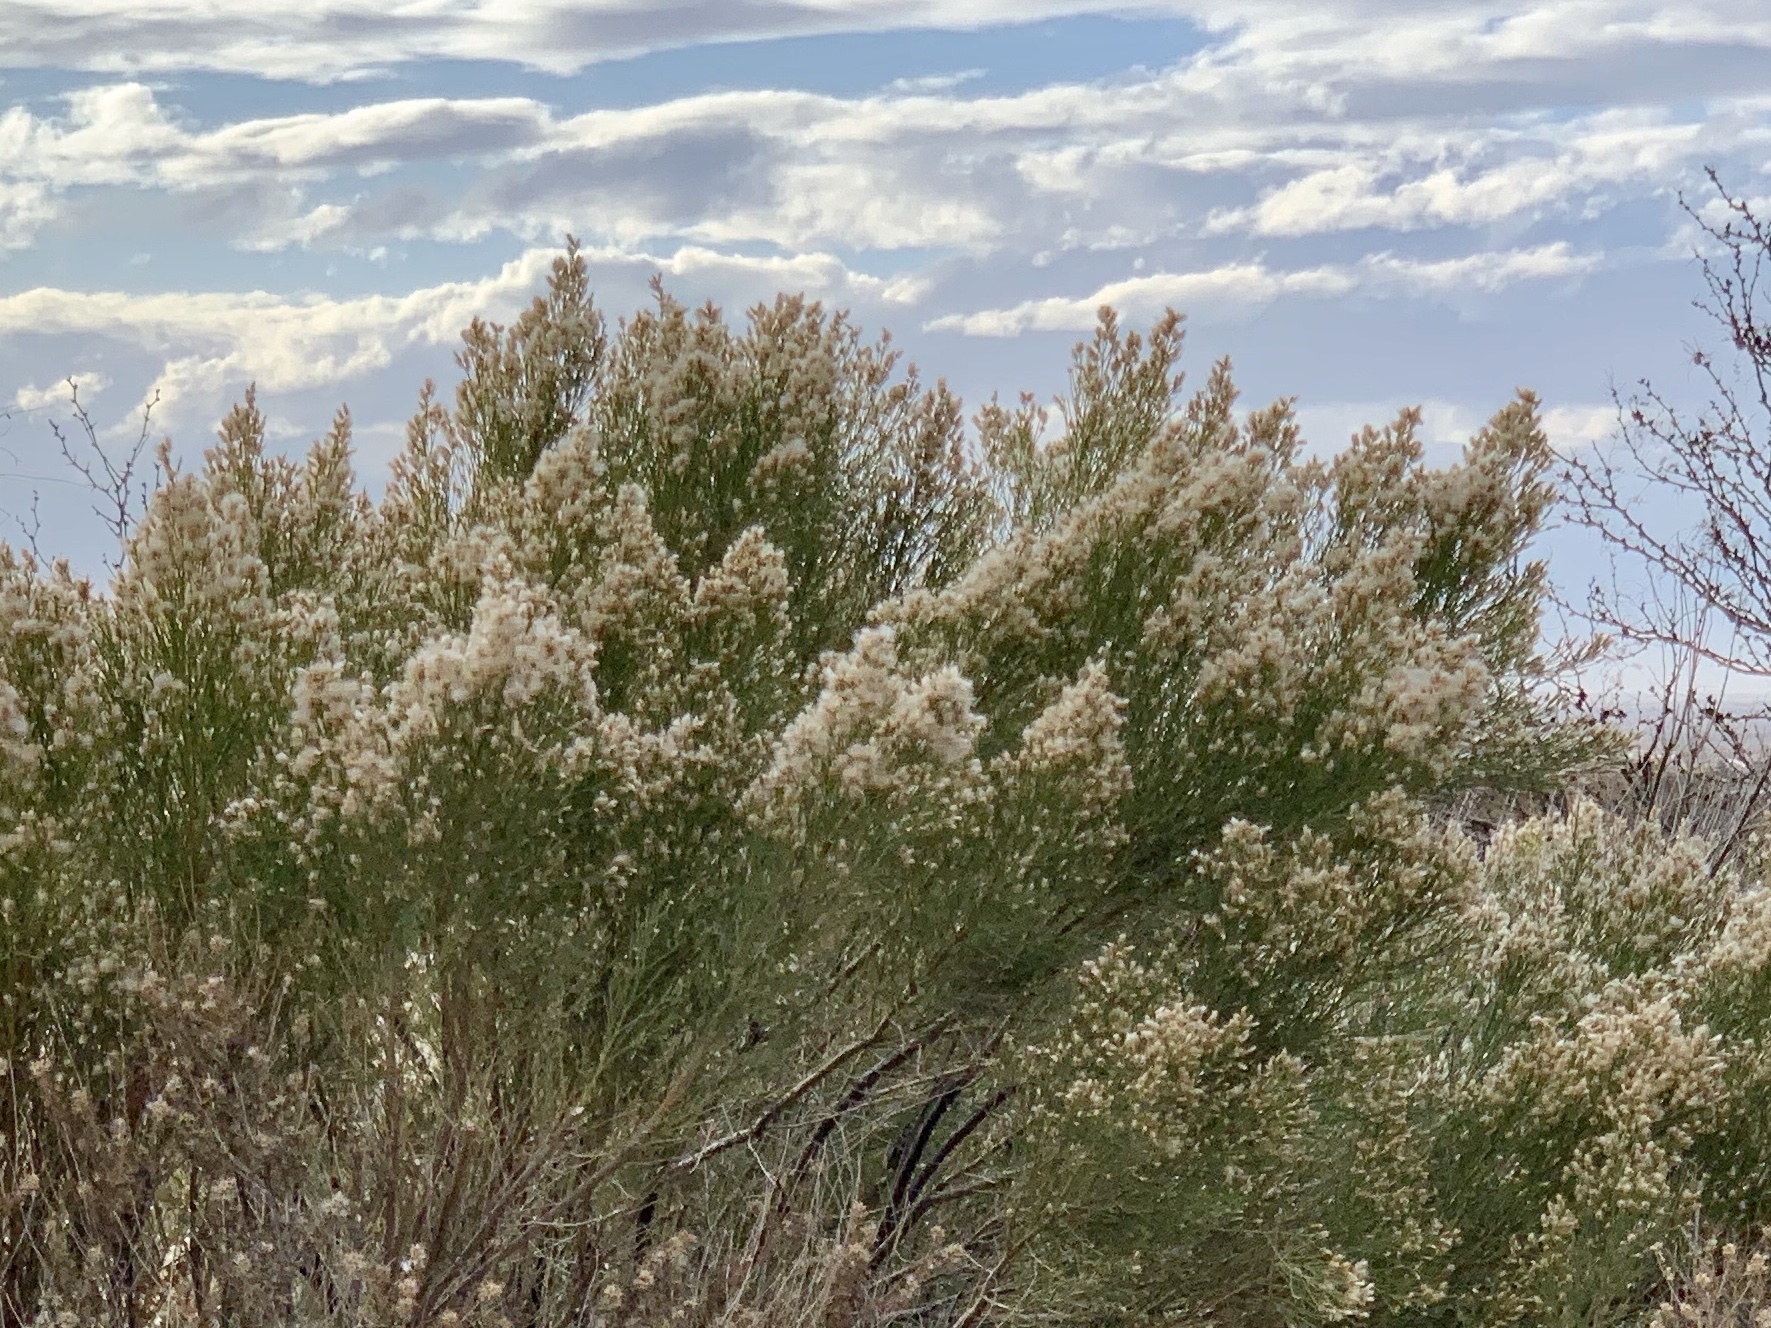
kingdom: Plantae
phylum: Tracheophyta
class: Magnoliopsida
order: Asterales
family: Asteraceae
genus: Baccharis
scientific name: Baccharis sarothroides
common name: Desert-broom
